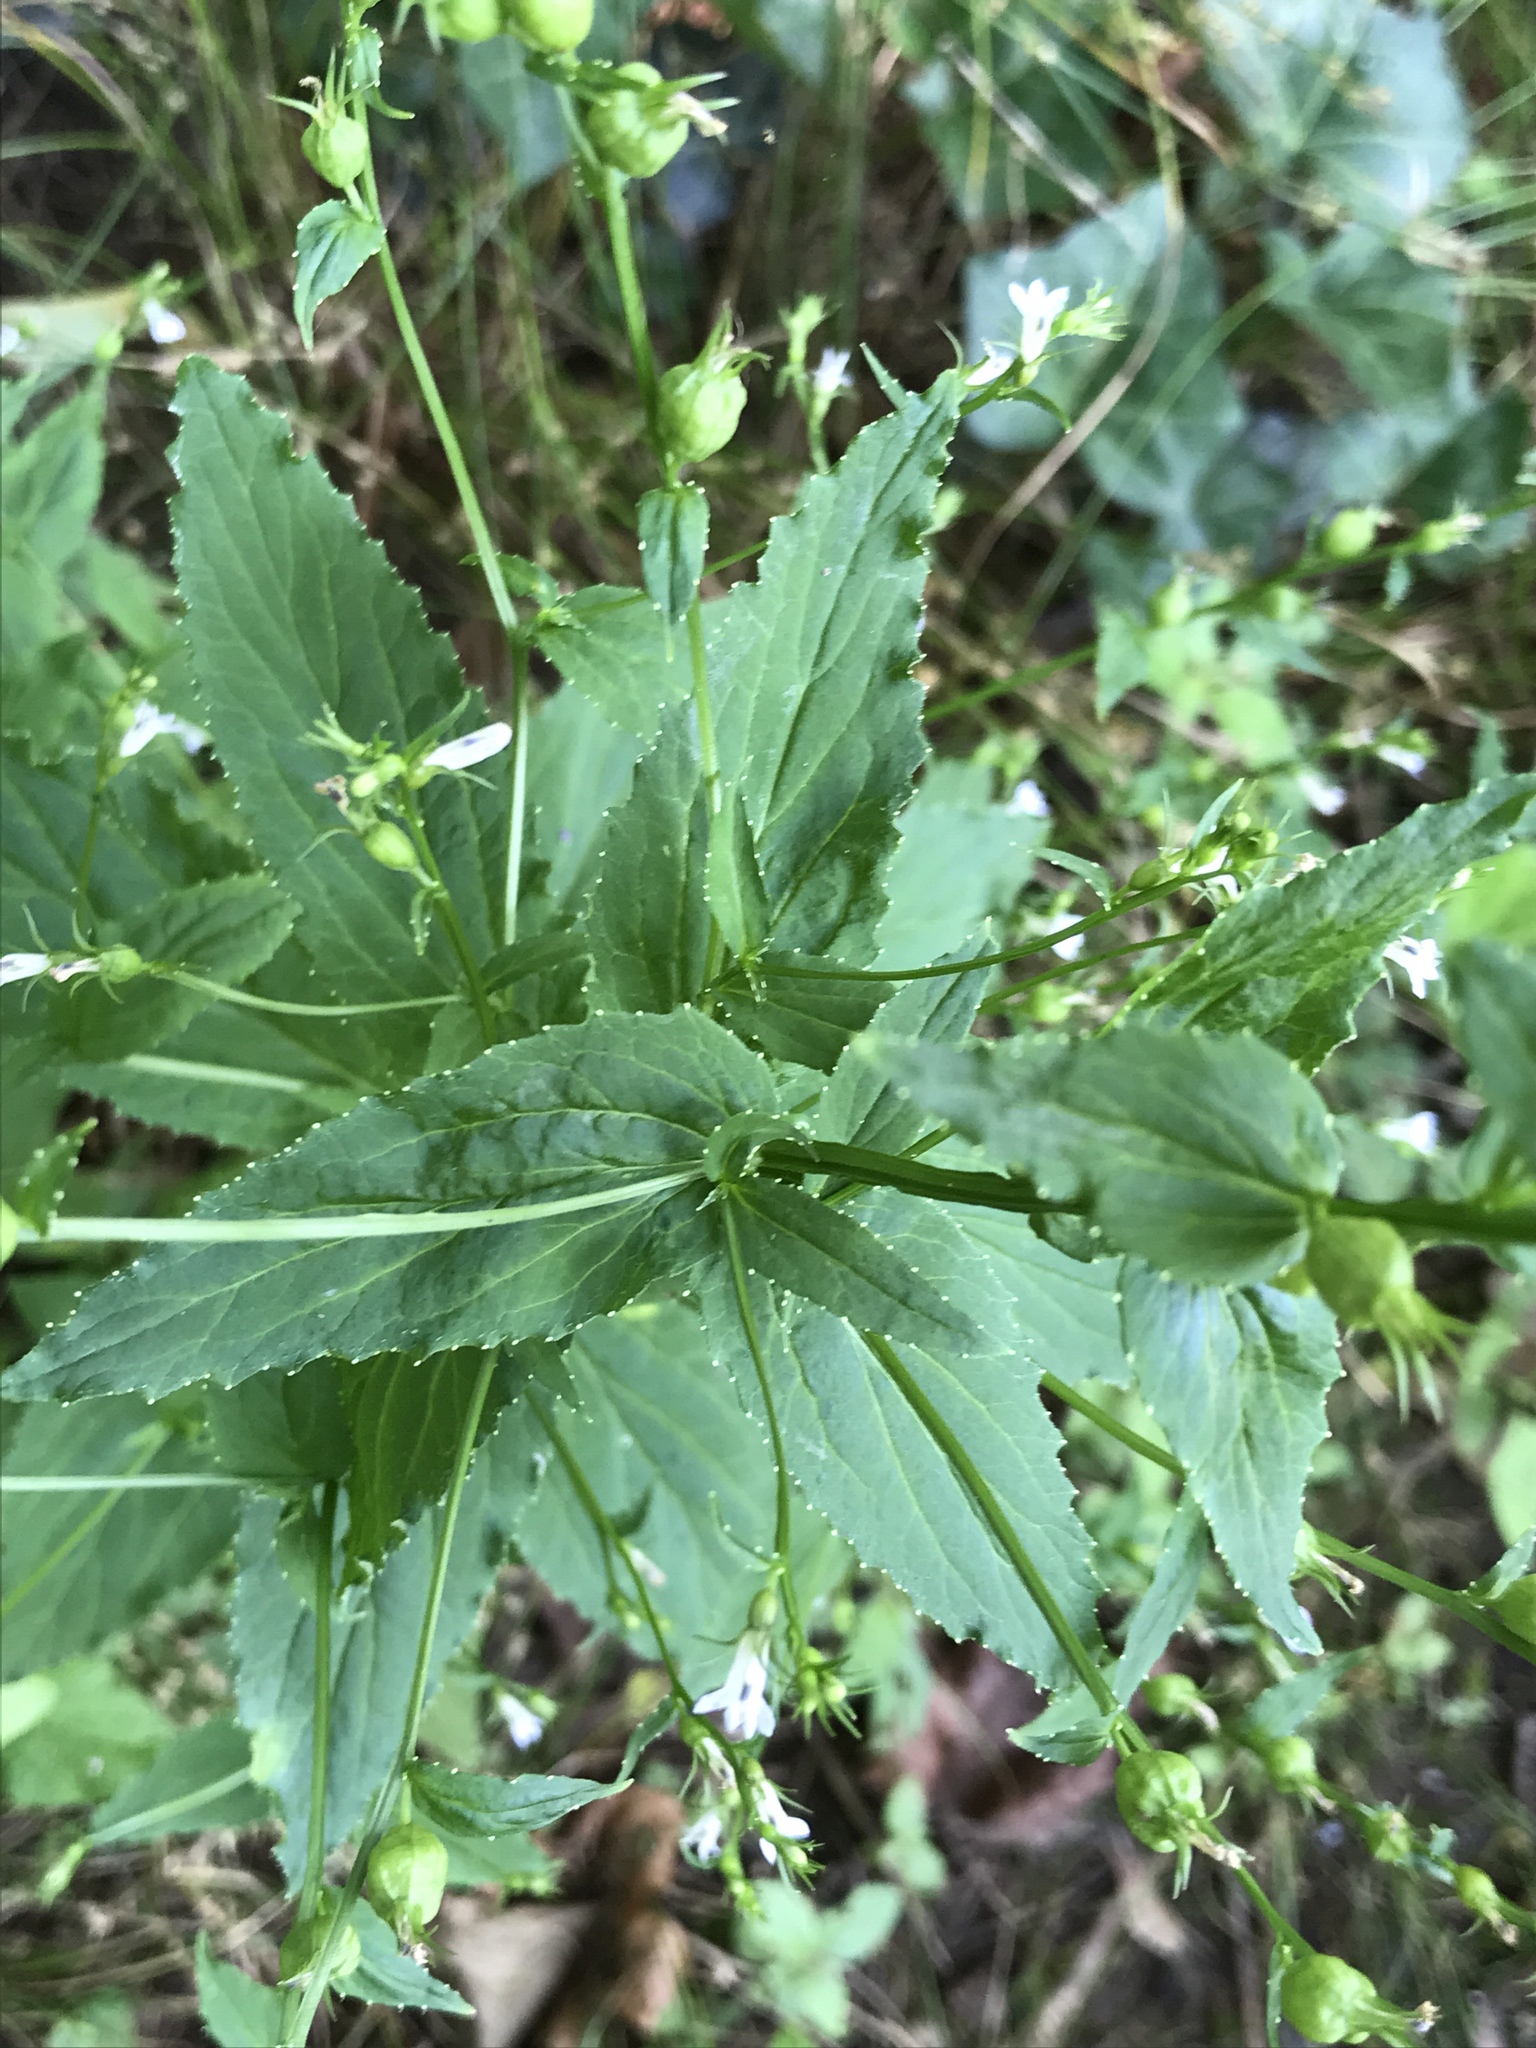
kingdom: Plantae
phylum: Tracheophyta
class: Magnoliopsida
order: Asterales
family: Campanulaceae
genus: Lobelia
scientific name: Lobelia inflata
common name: Indian tobacco
